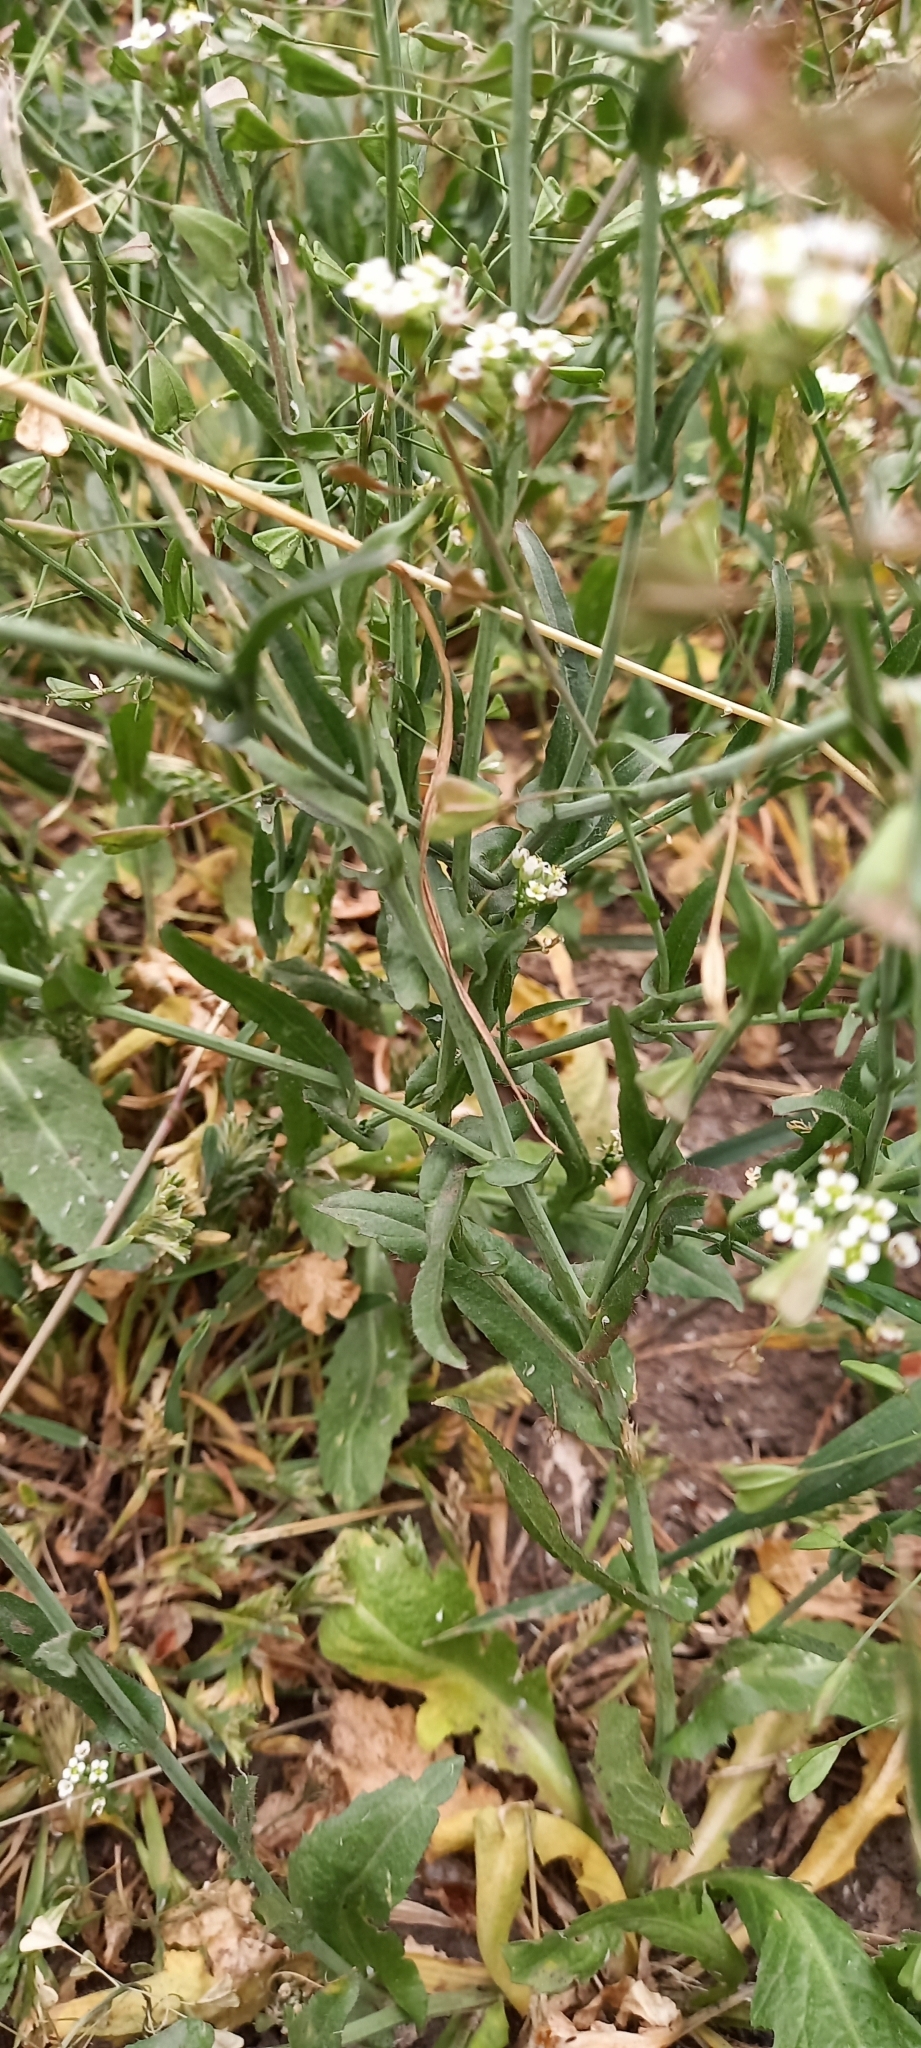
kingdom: Plantae
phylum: Tracheophyta
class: Magnoliopsida
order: Brassicales
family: Brassicaceae
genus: Capsella
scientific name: Capsella bursa-pastoris
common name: Shepherd's purse
